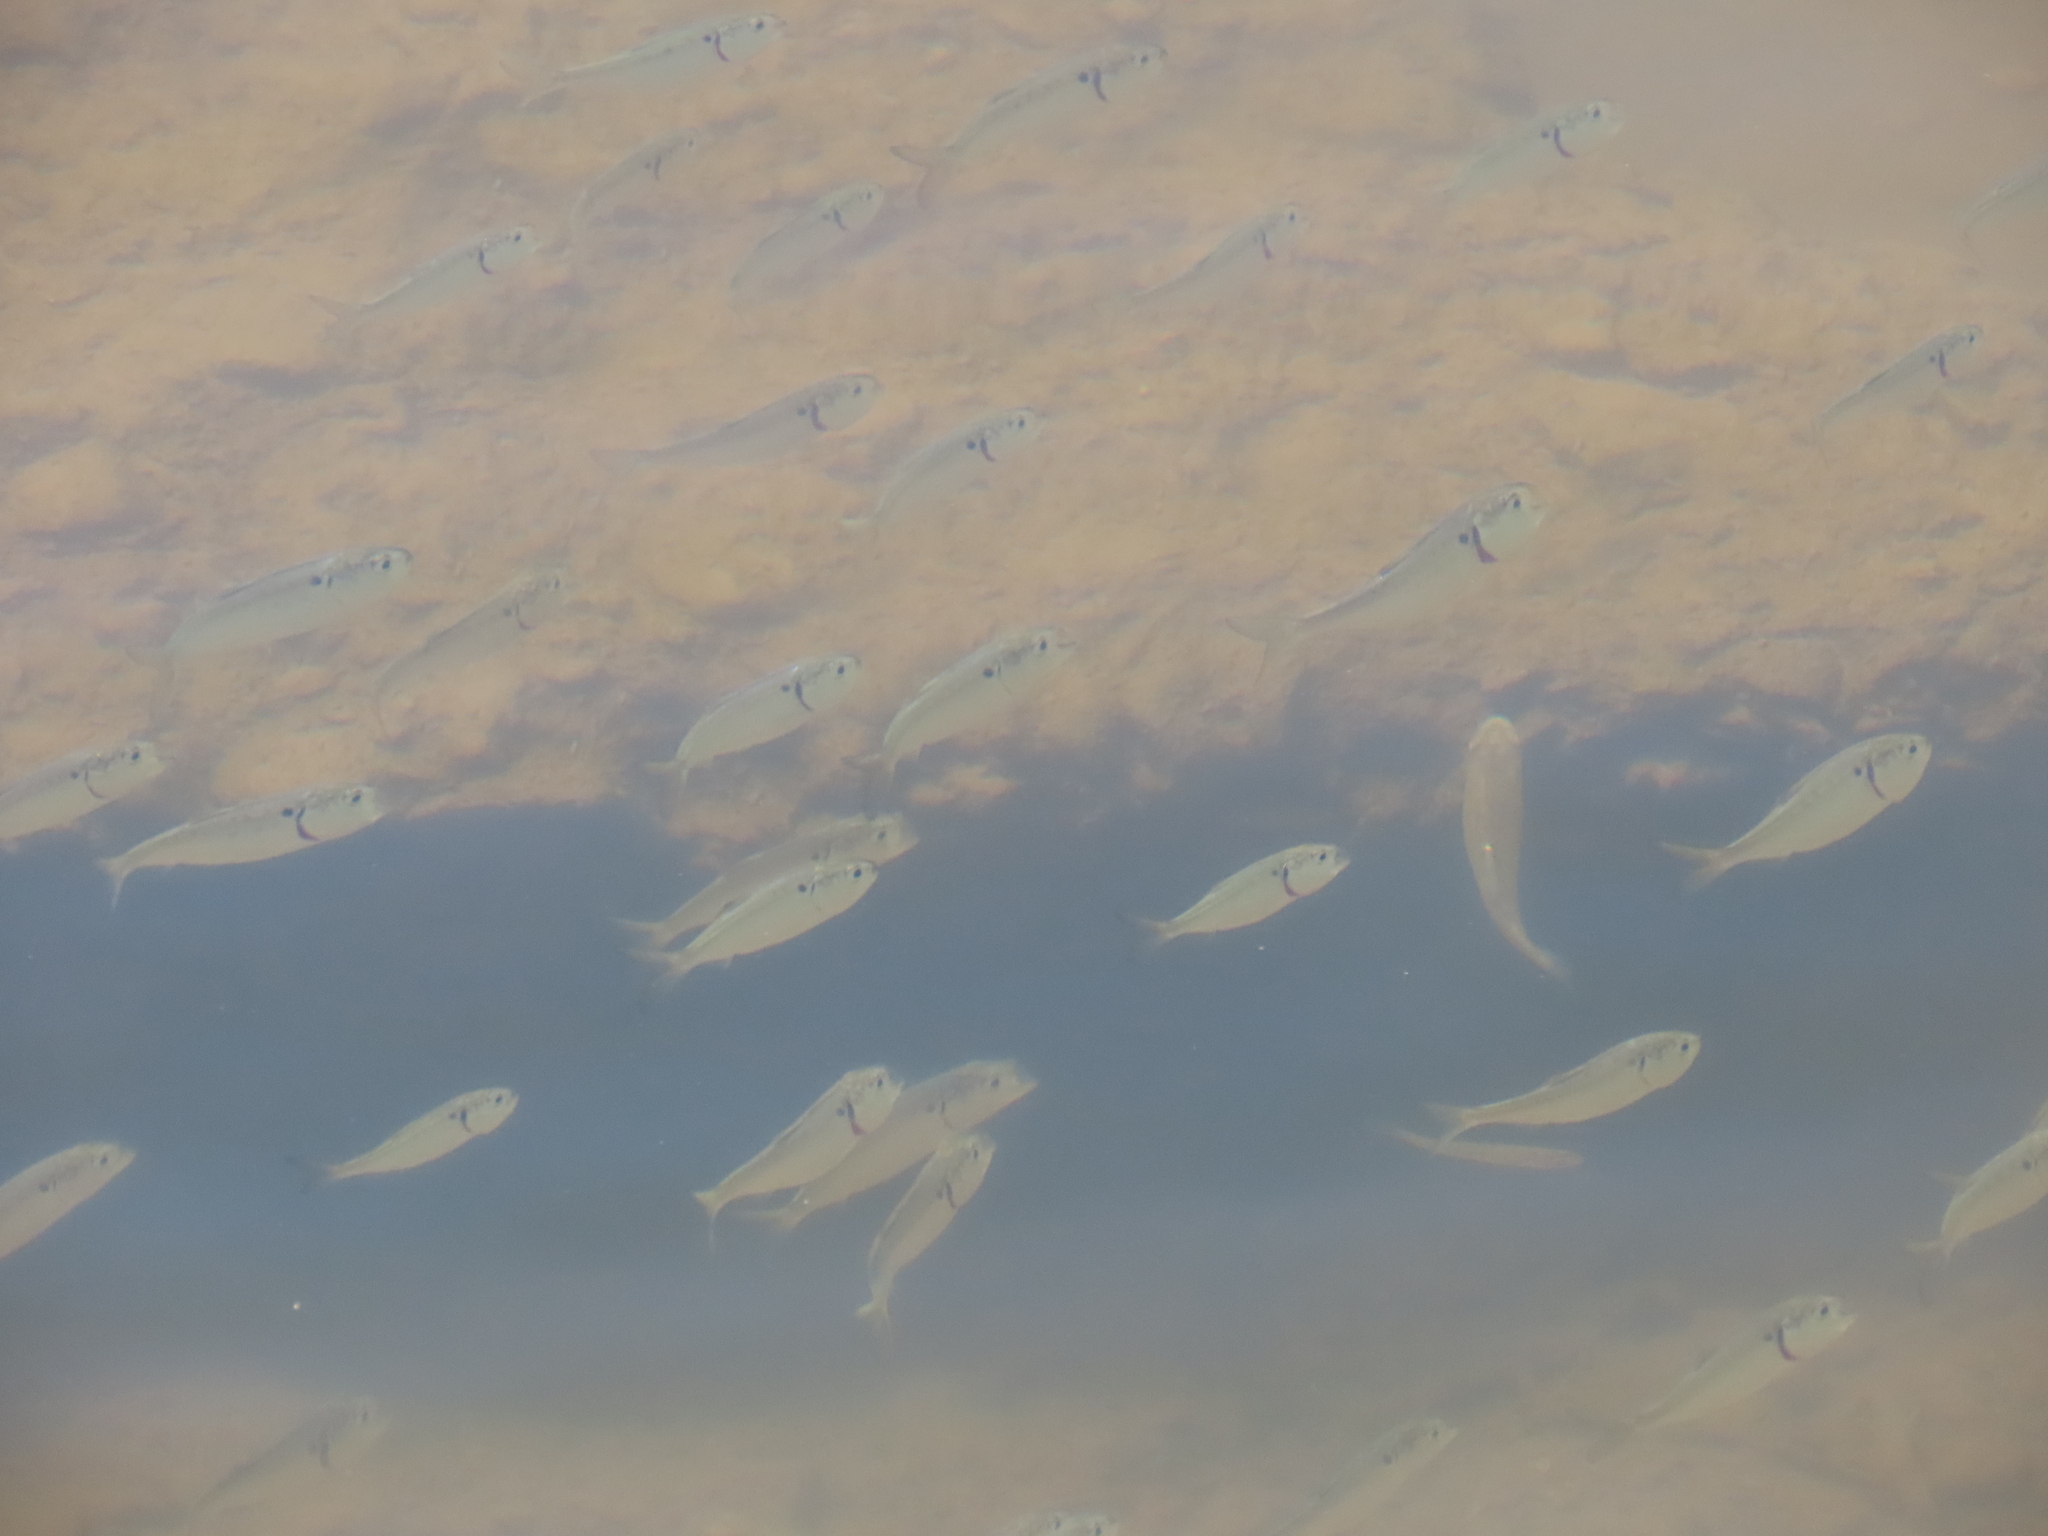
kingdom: Animalia
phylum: Chordata
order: Clupeiformes
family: Clupeidae
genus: Brevoortia
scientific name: Brevoortia tyrannus
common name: Atlantic menhaden
